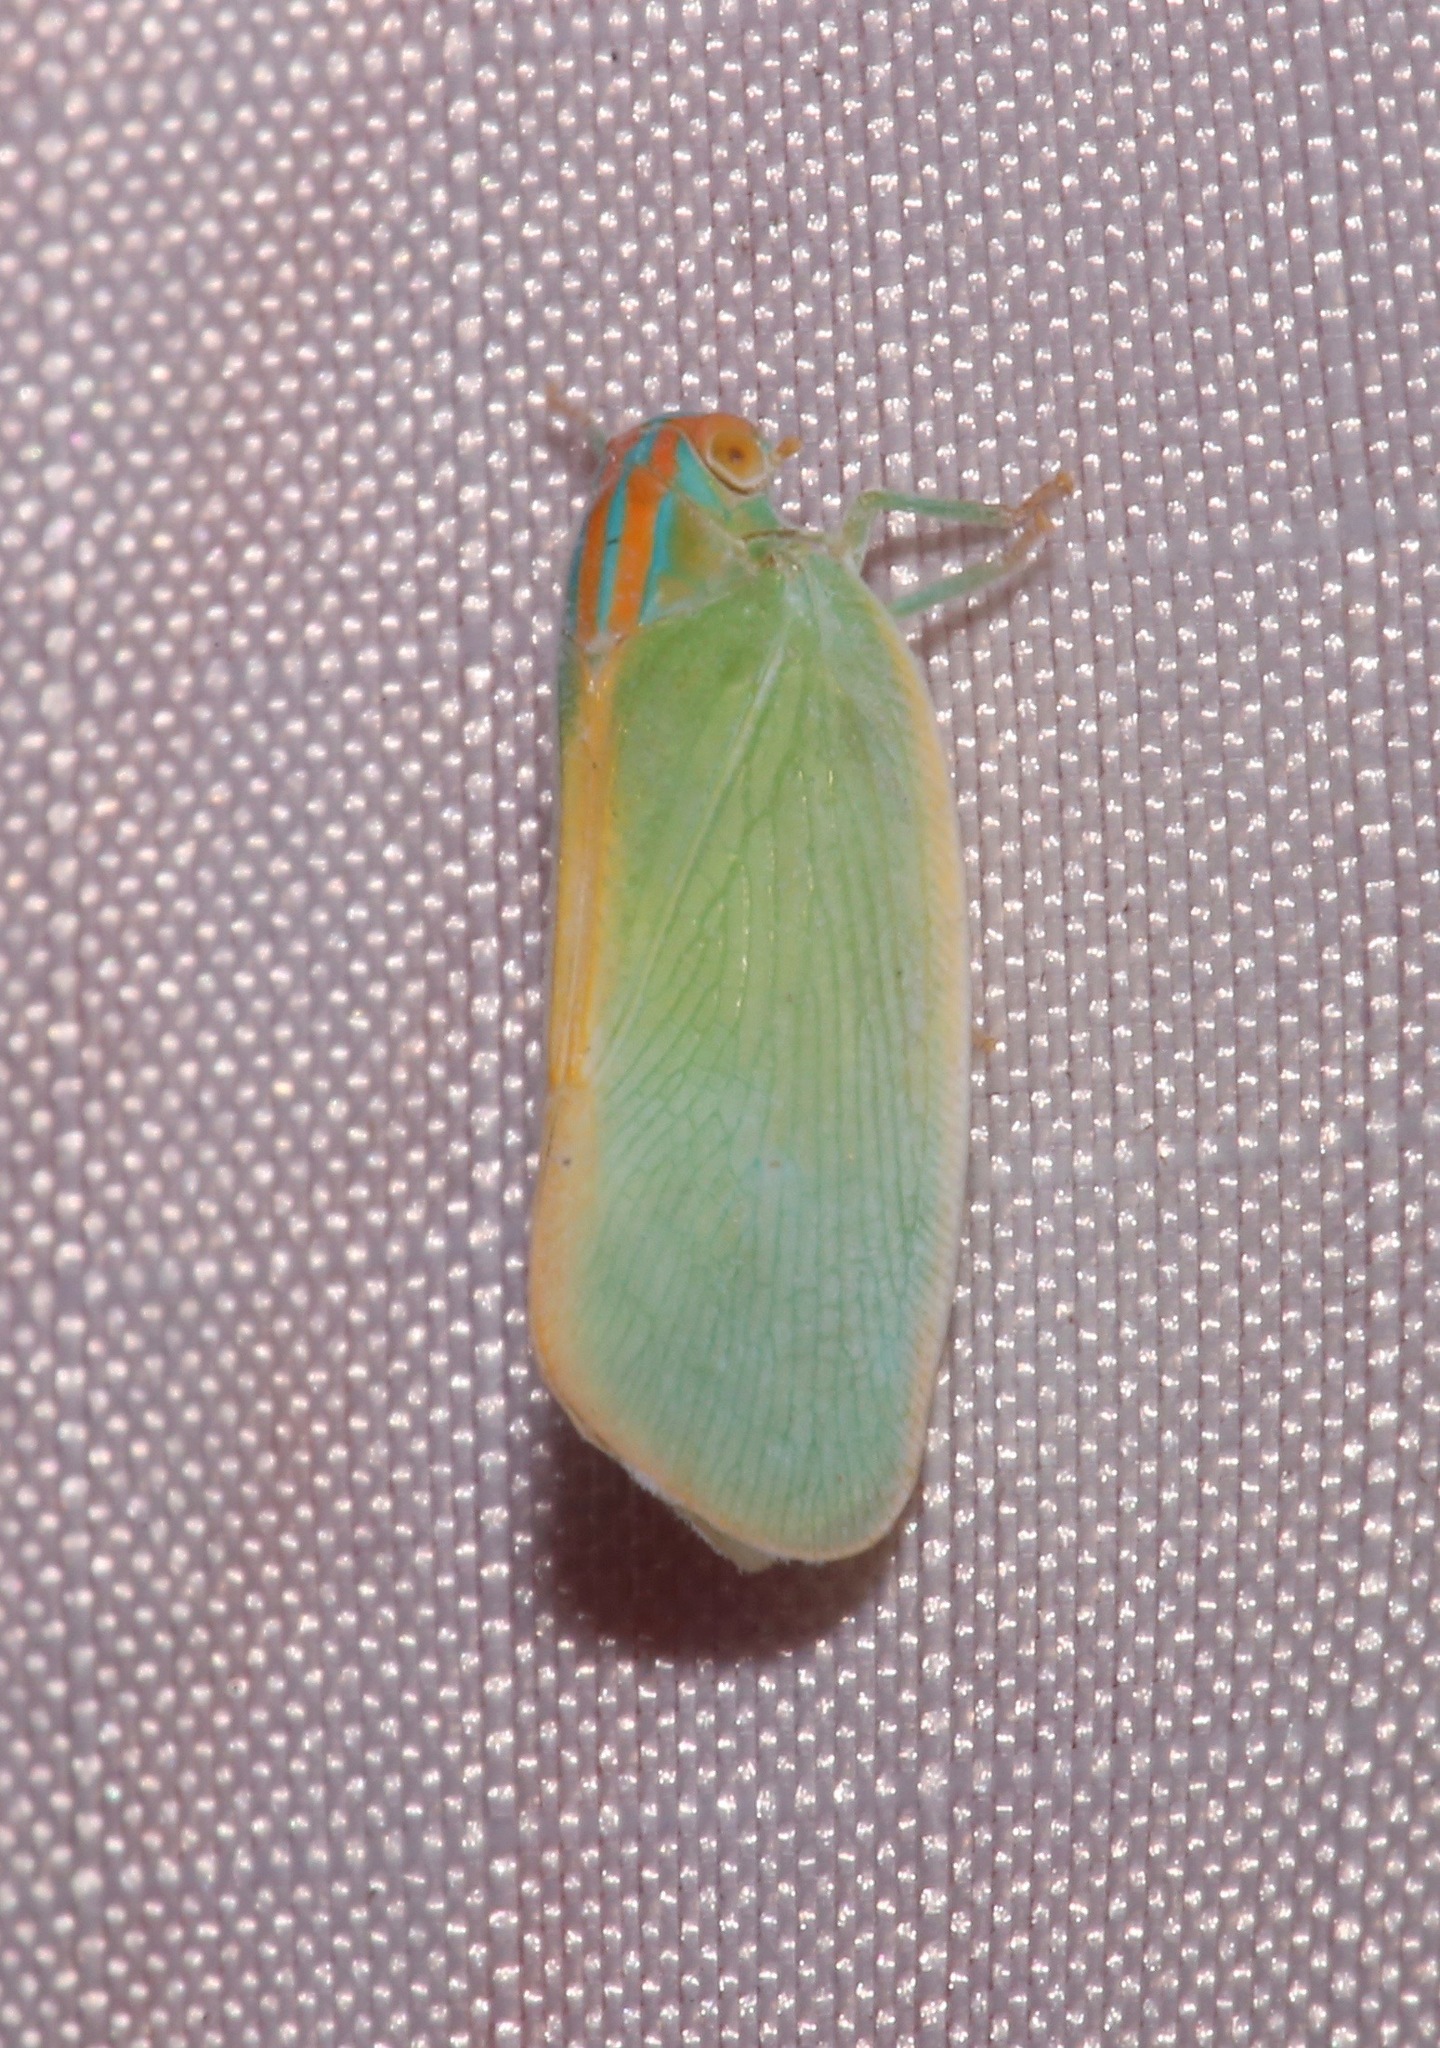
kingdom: Animalia
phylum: Arthropoda
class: Insecta
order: Hemiptera
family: Flatidae
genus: Ormenaria
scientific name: Ormenaria rufifascia
